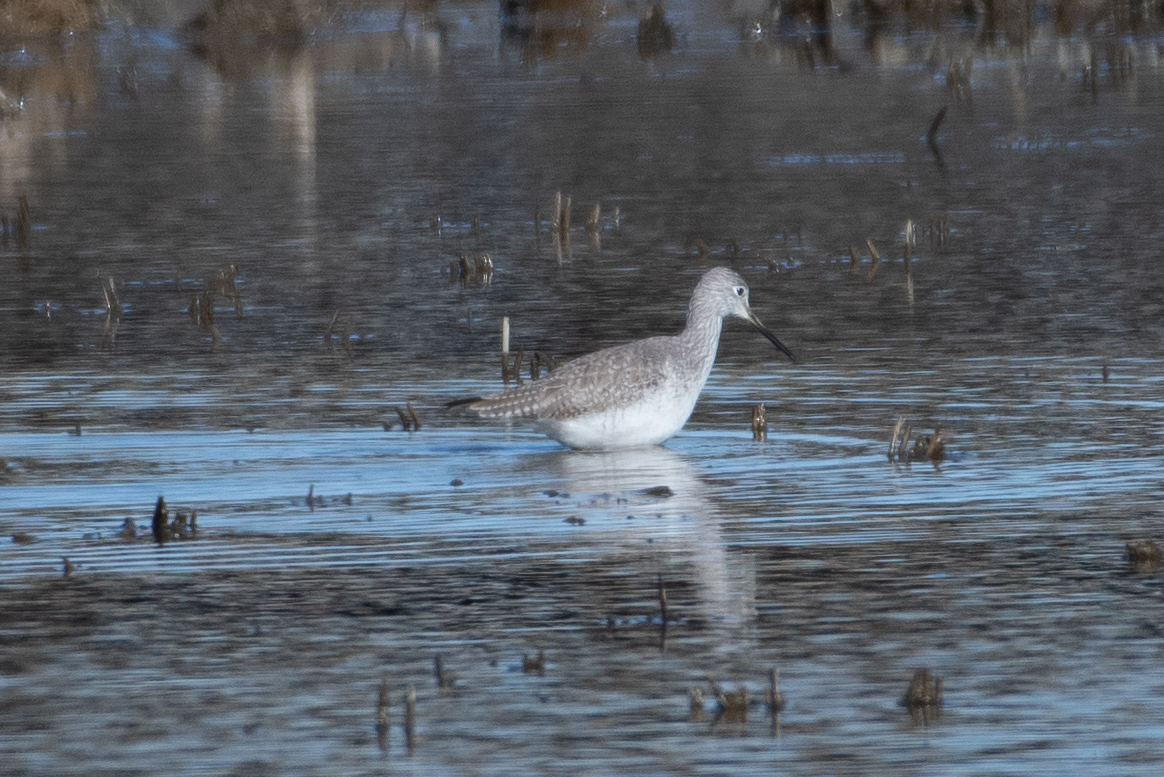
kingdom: Animalia
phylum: Chordata
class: Aves
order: Charadriiformes
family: Scolopacidae
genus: Tringa
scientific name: Tringa melanoleuca
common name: Greater yellowlegs
